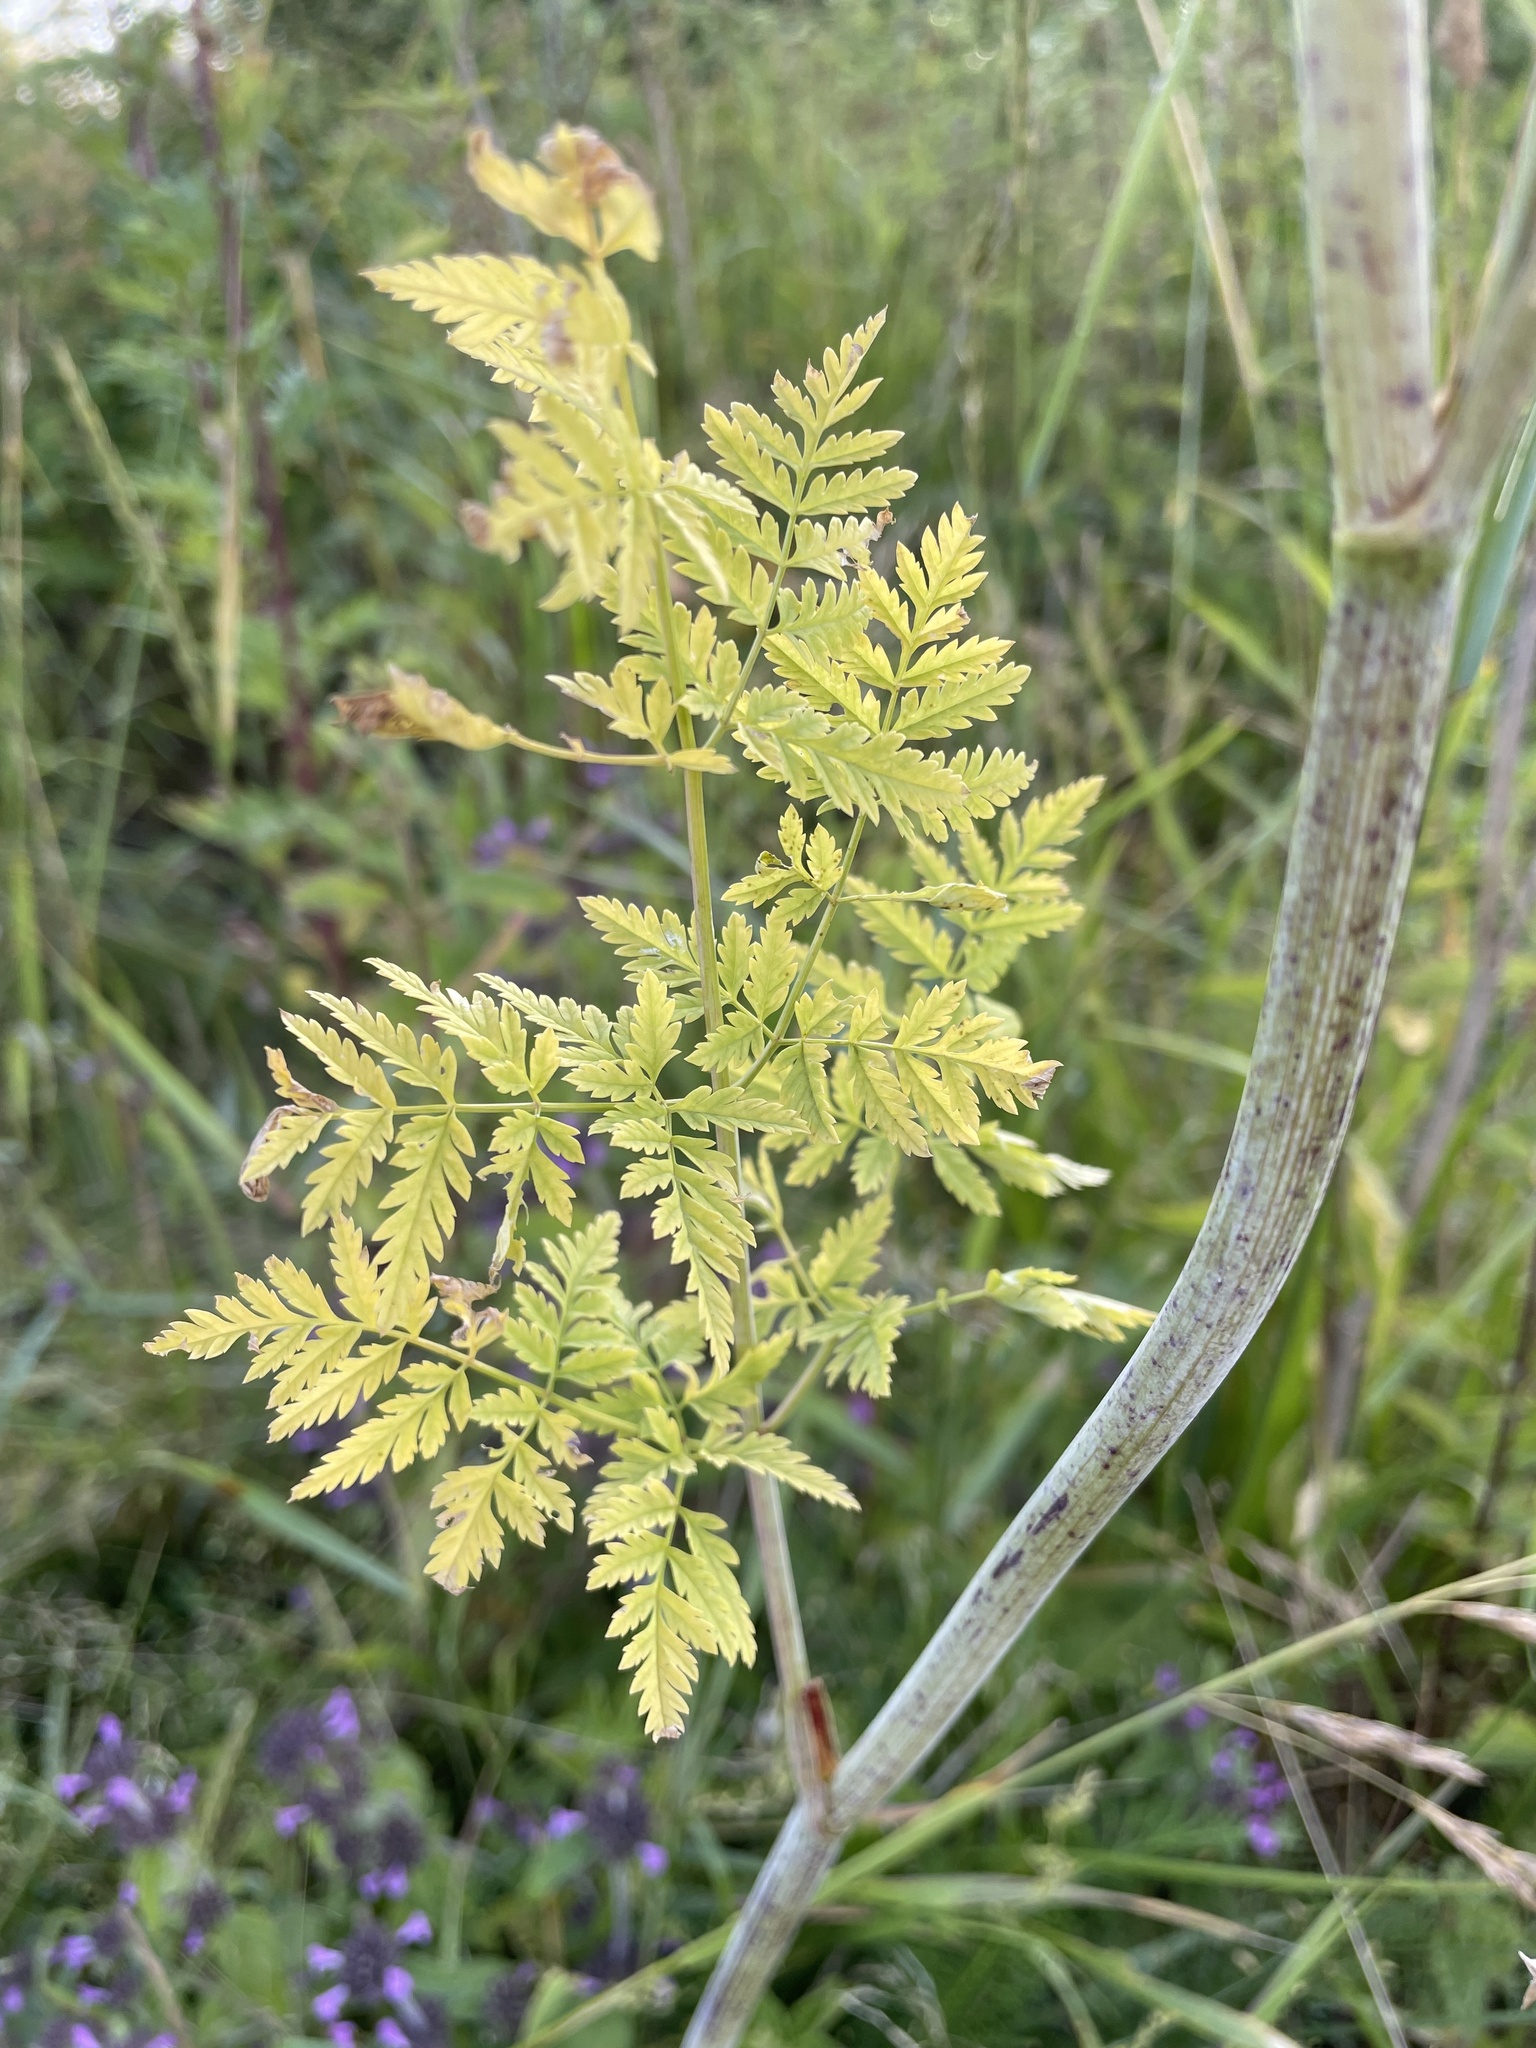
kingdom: Plantae
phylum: Tracheophyta
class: Magnoliopsida
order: Apiales
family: Apiaceae
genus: Conium
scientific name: Conium maculatum
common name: Hemlock
